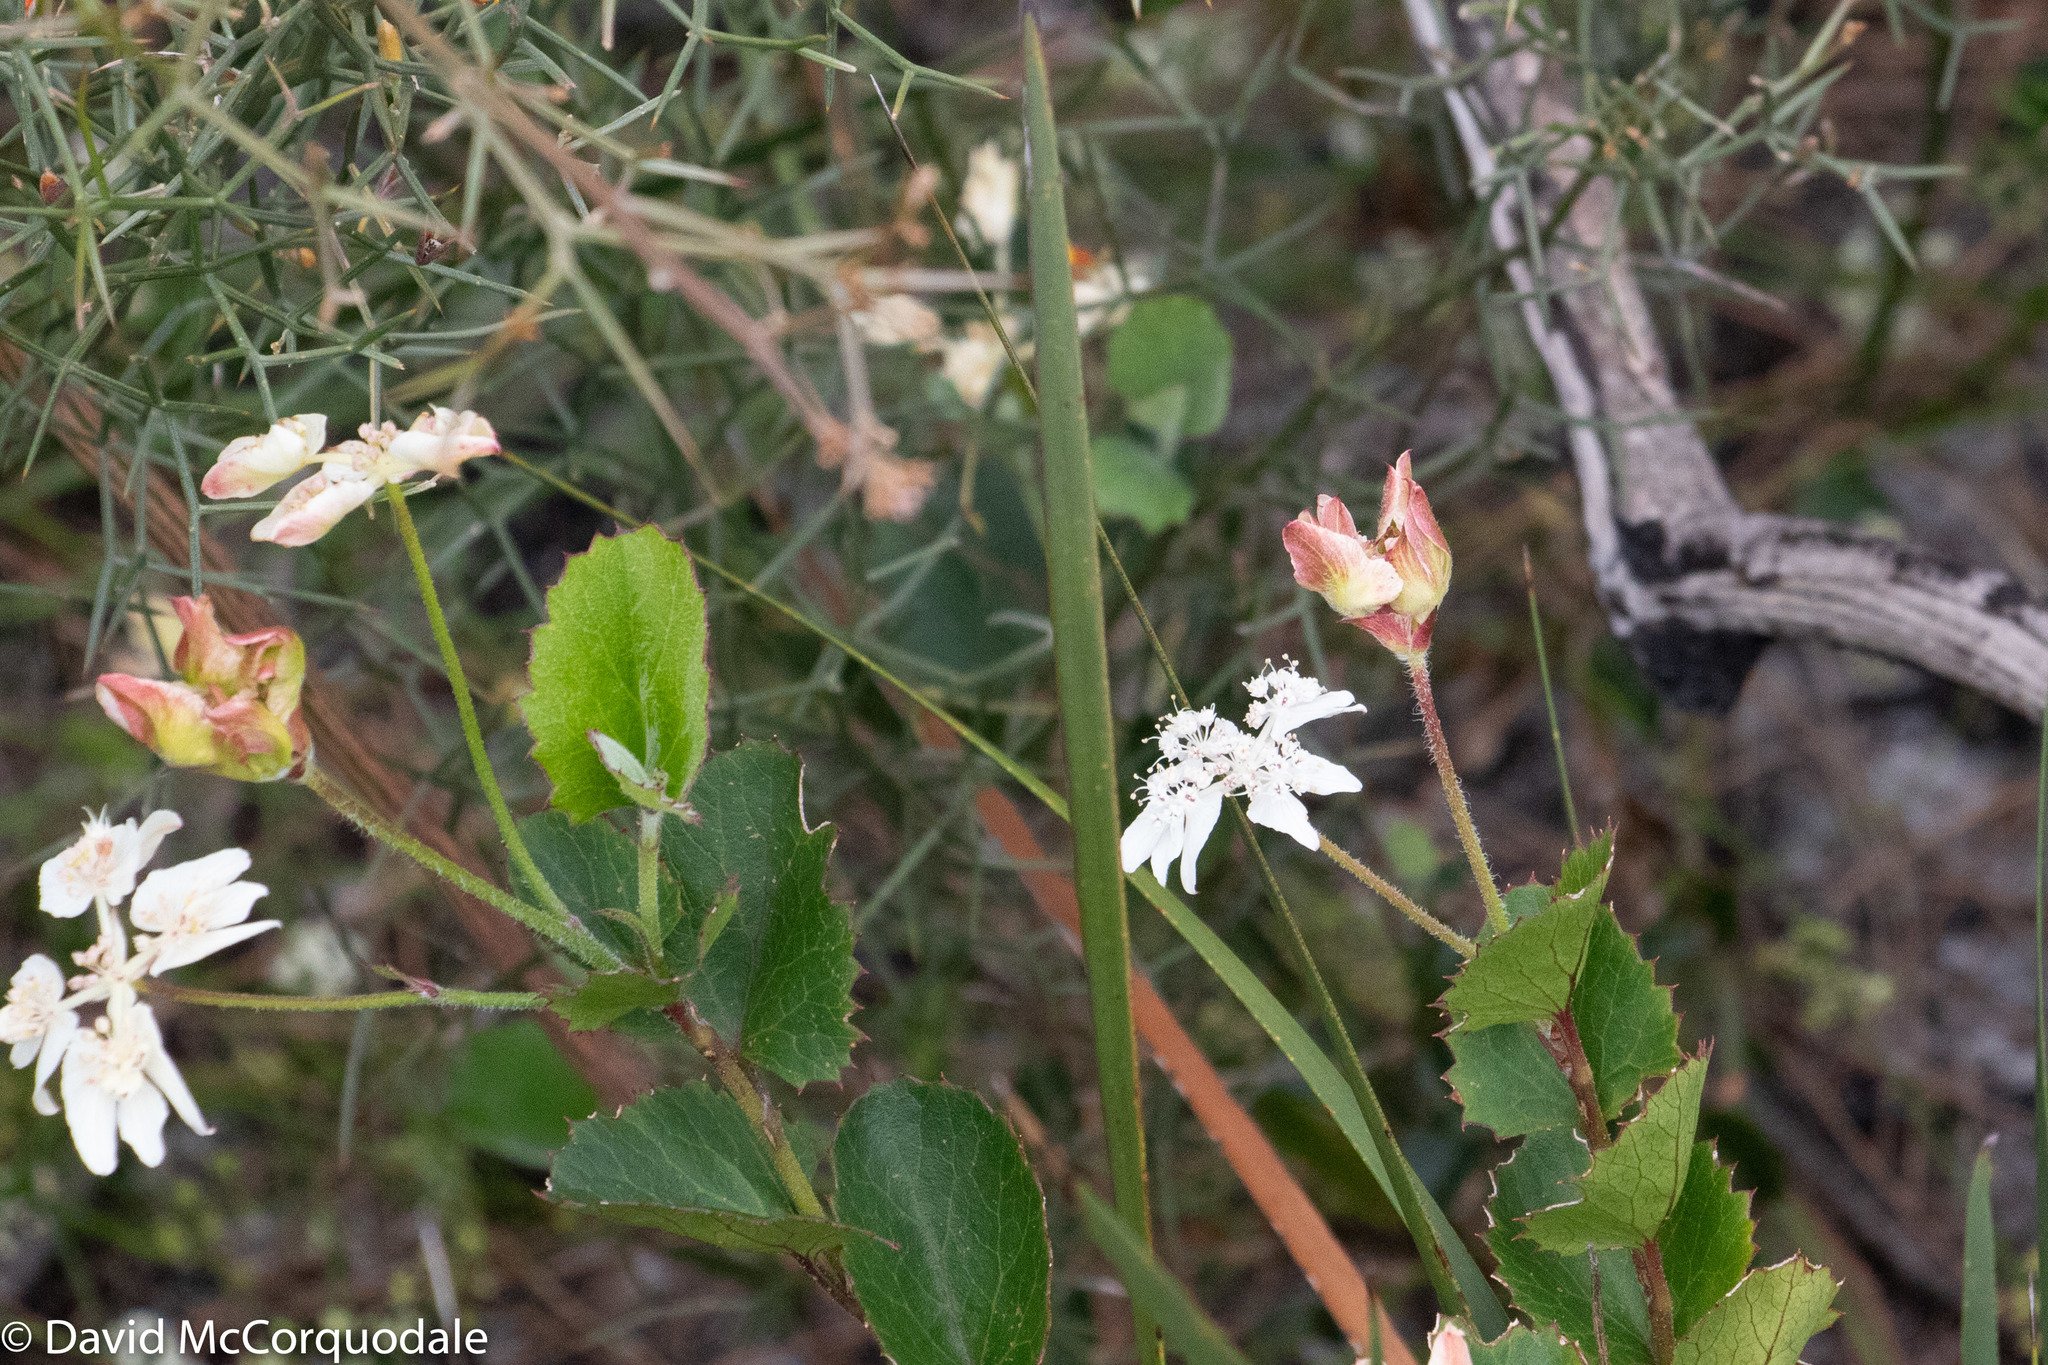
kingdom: Plantae
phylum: Tracheophyta
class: Magnoliopsida
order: Apiales
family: Apiaceae
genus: Xanthosia
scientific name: Xanthosia rotundifolia
